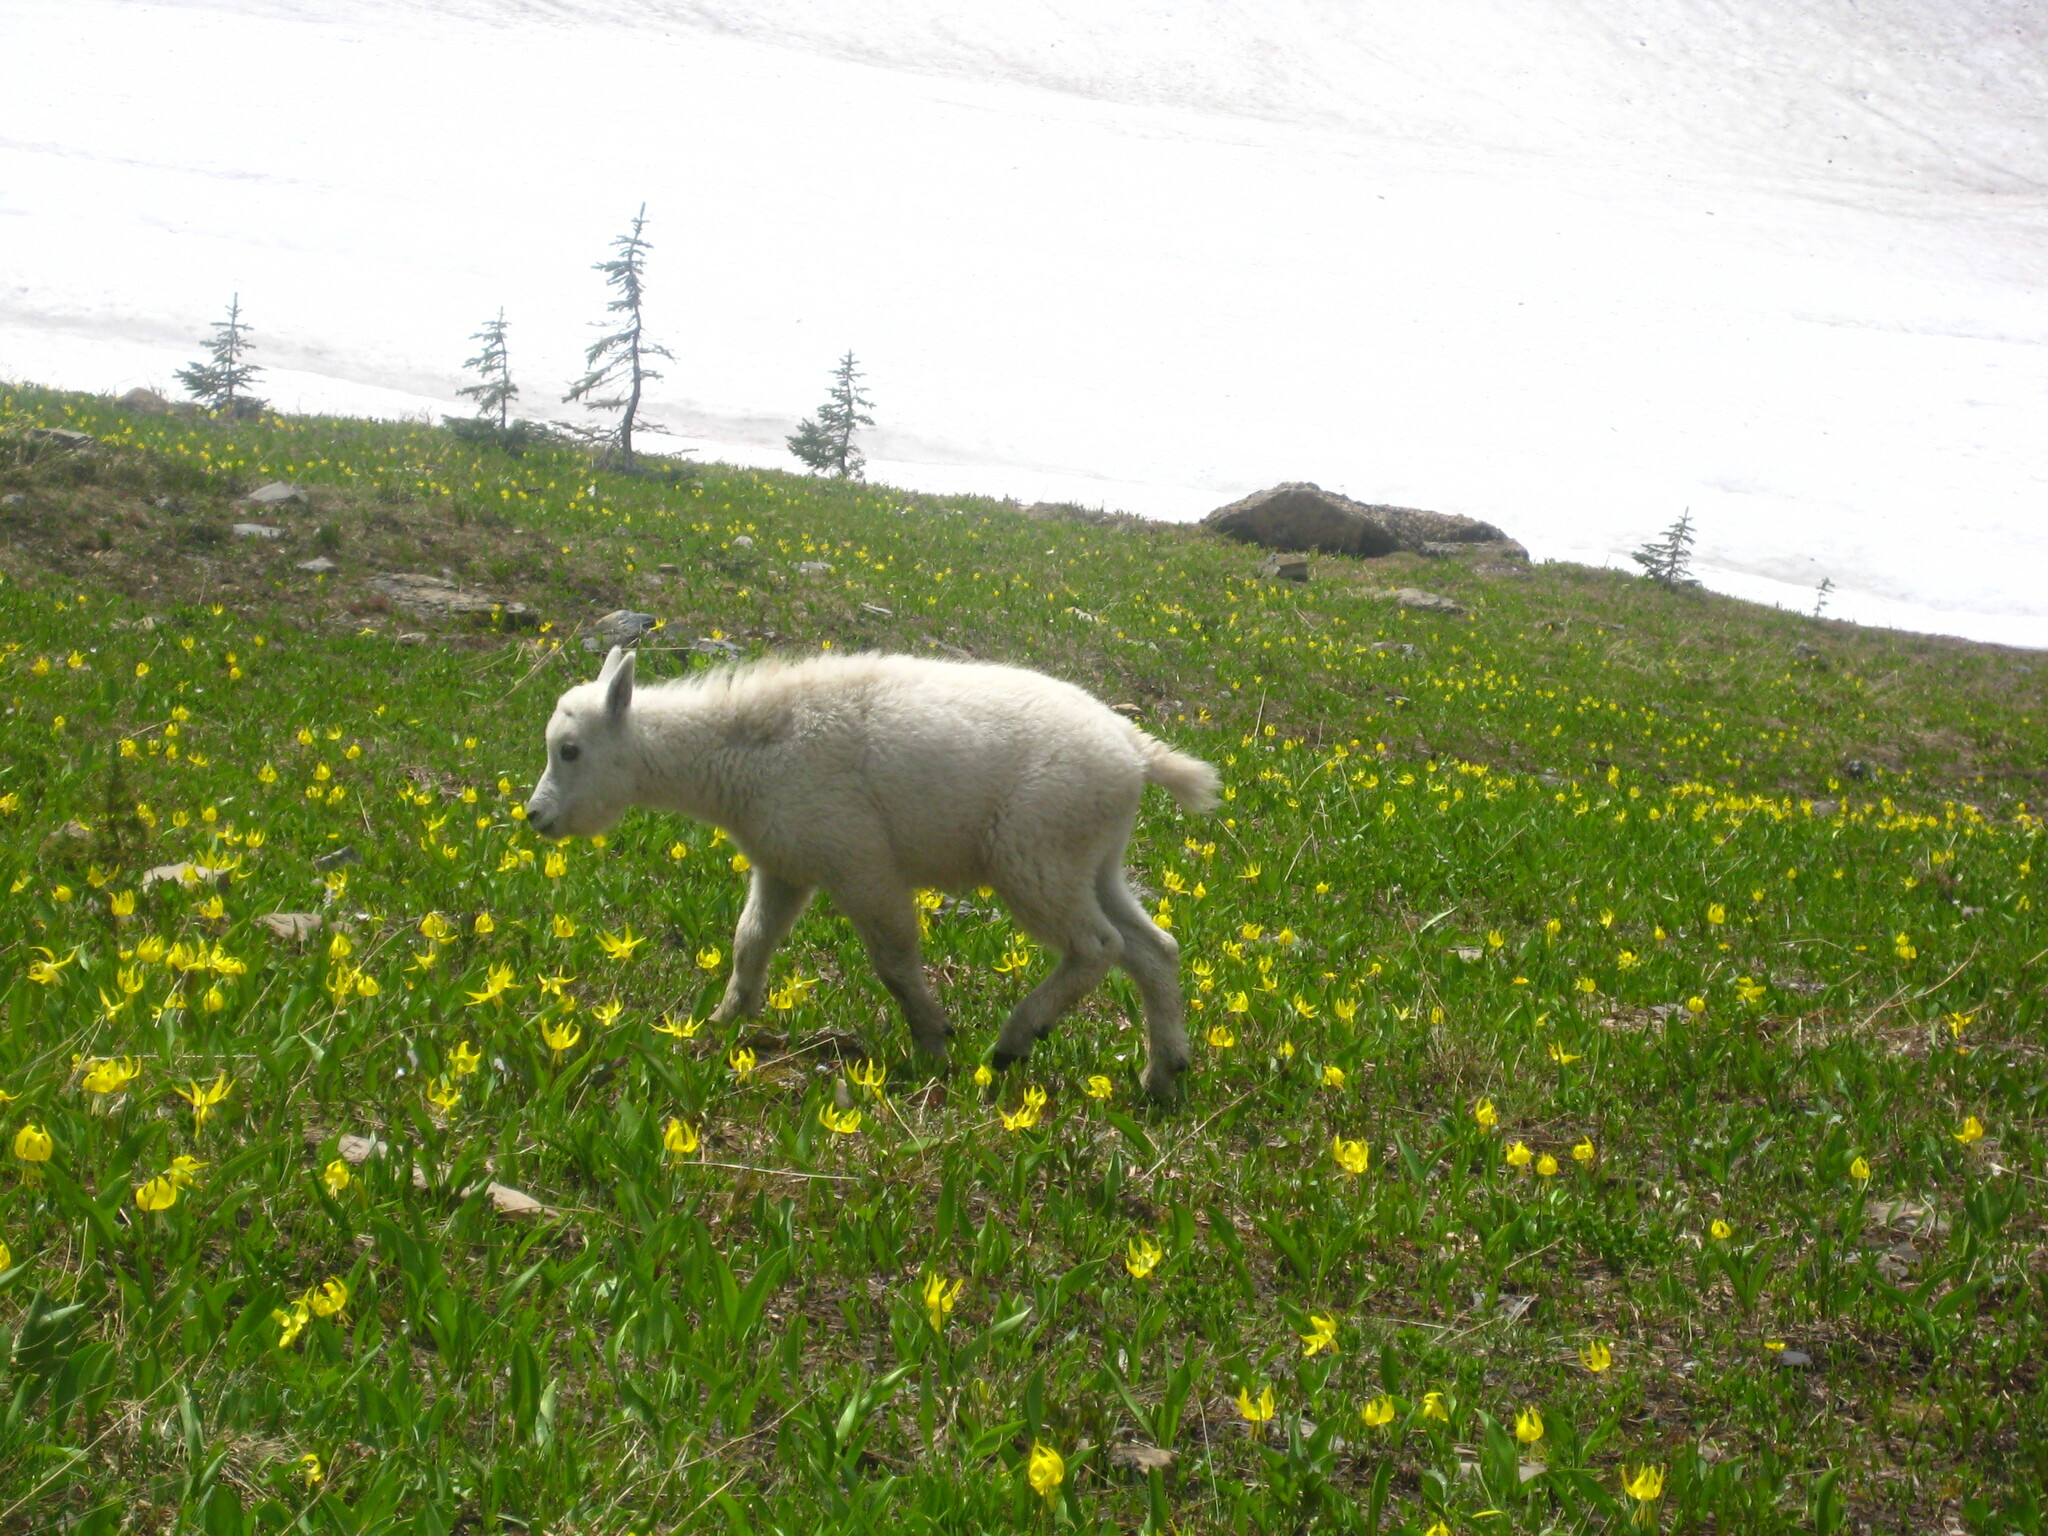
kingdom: Animalia
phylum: Chordata
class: Mammalia
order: Artiodactyla
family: Bovidae
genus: Oreamnos
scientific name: Oreamnos americanus
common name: Mountain goat
